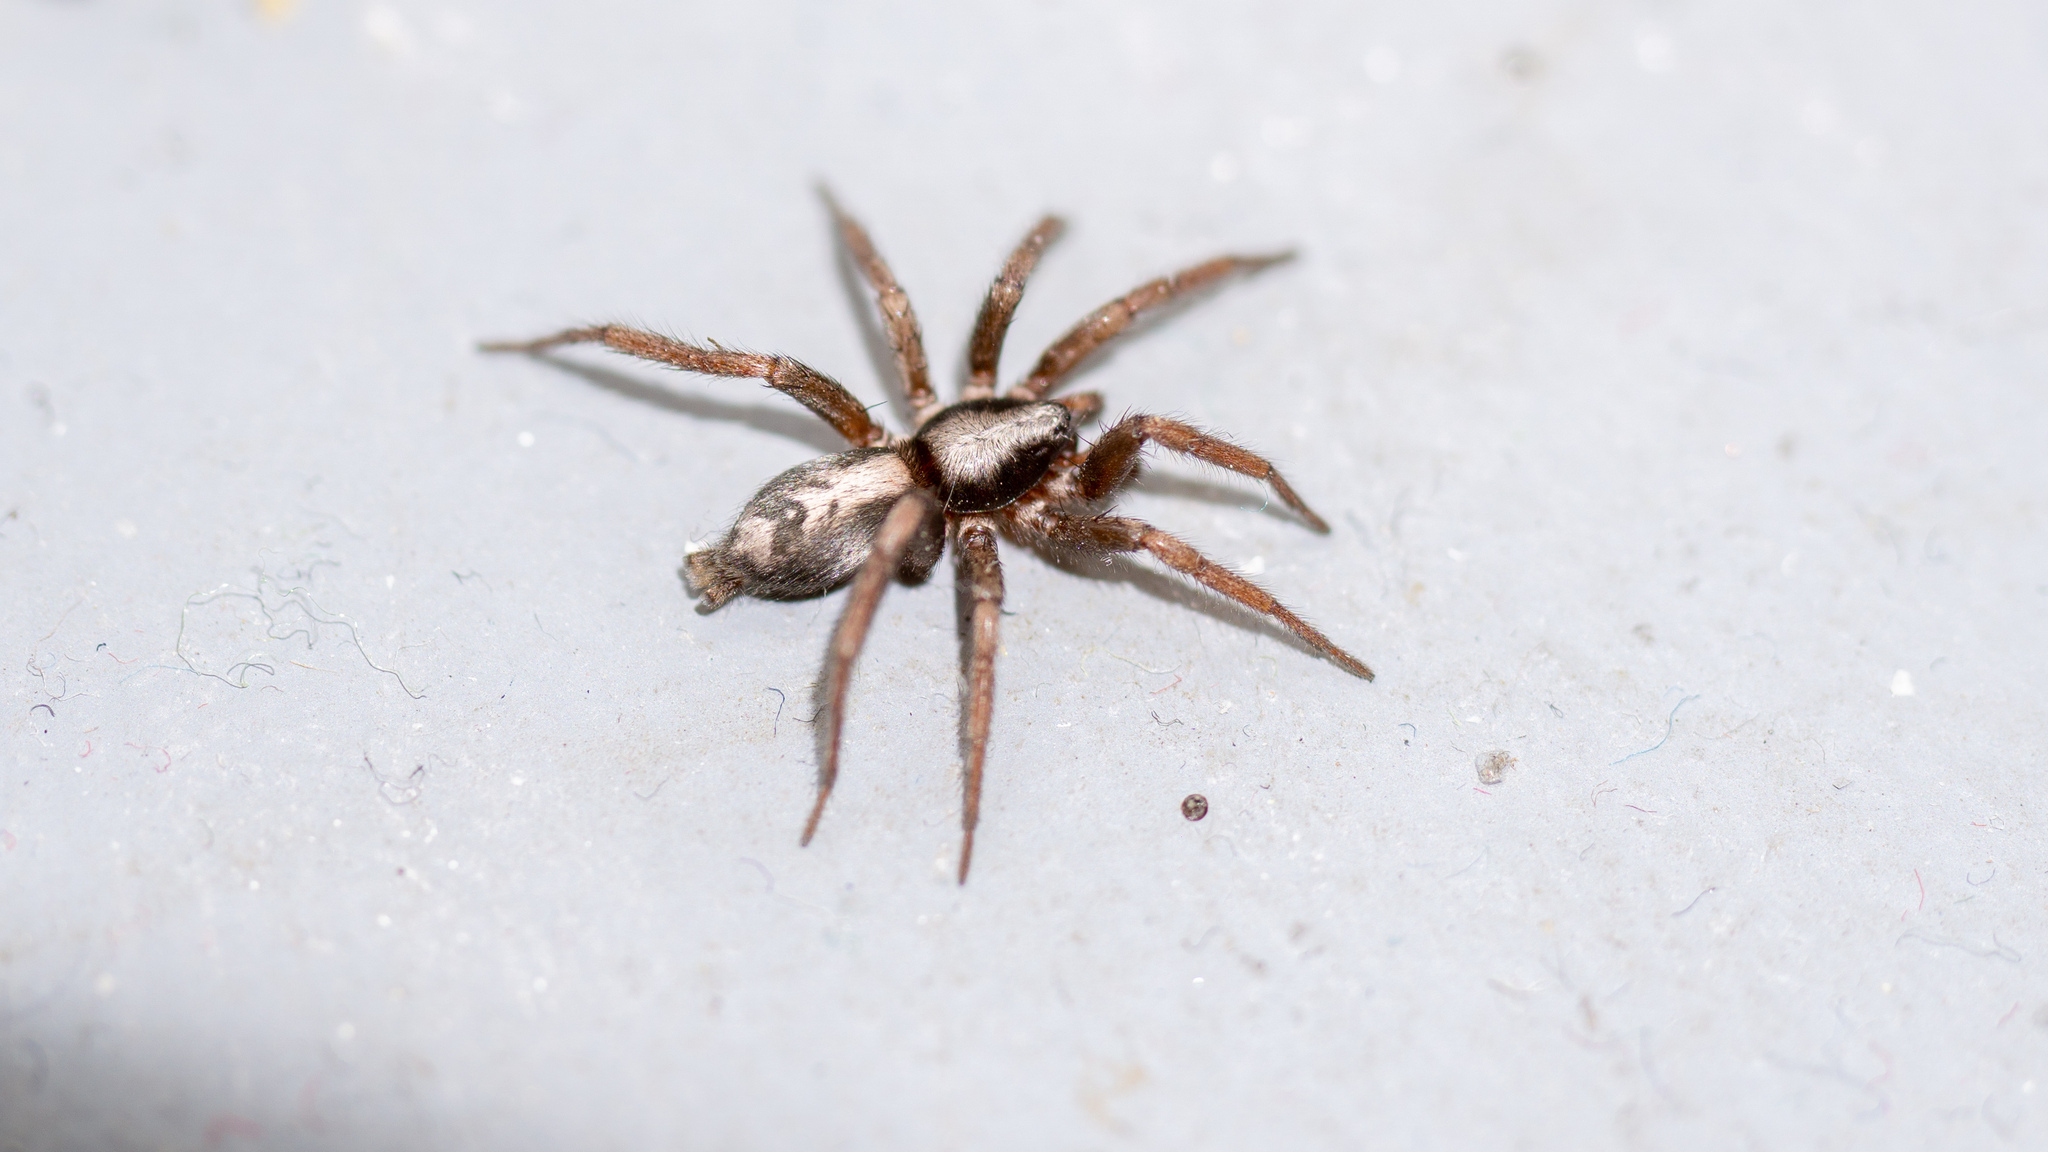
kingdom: Animalia
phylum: Arthropoda
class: Arachnida
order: Araneae
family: Gnaphosidae
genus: Herpyllus
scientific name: Herpyllus ecclesiasticus
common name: Eastern parson spider
